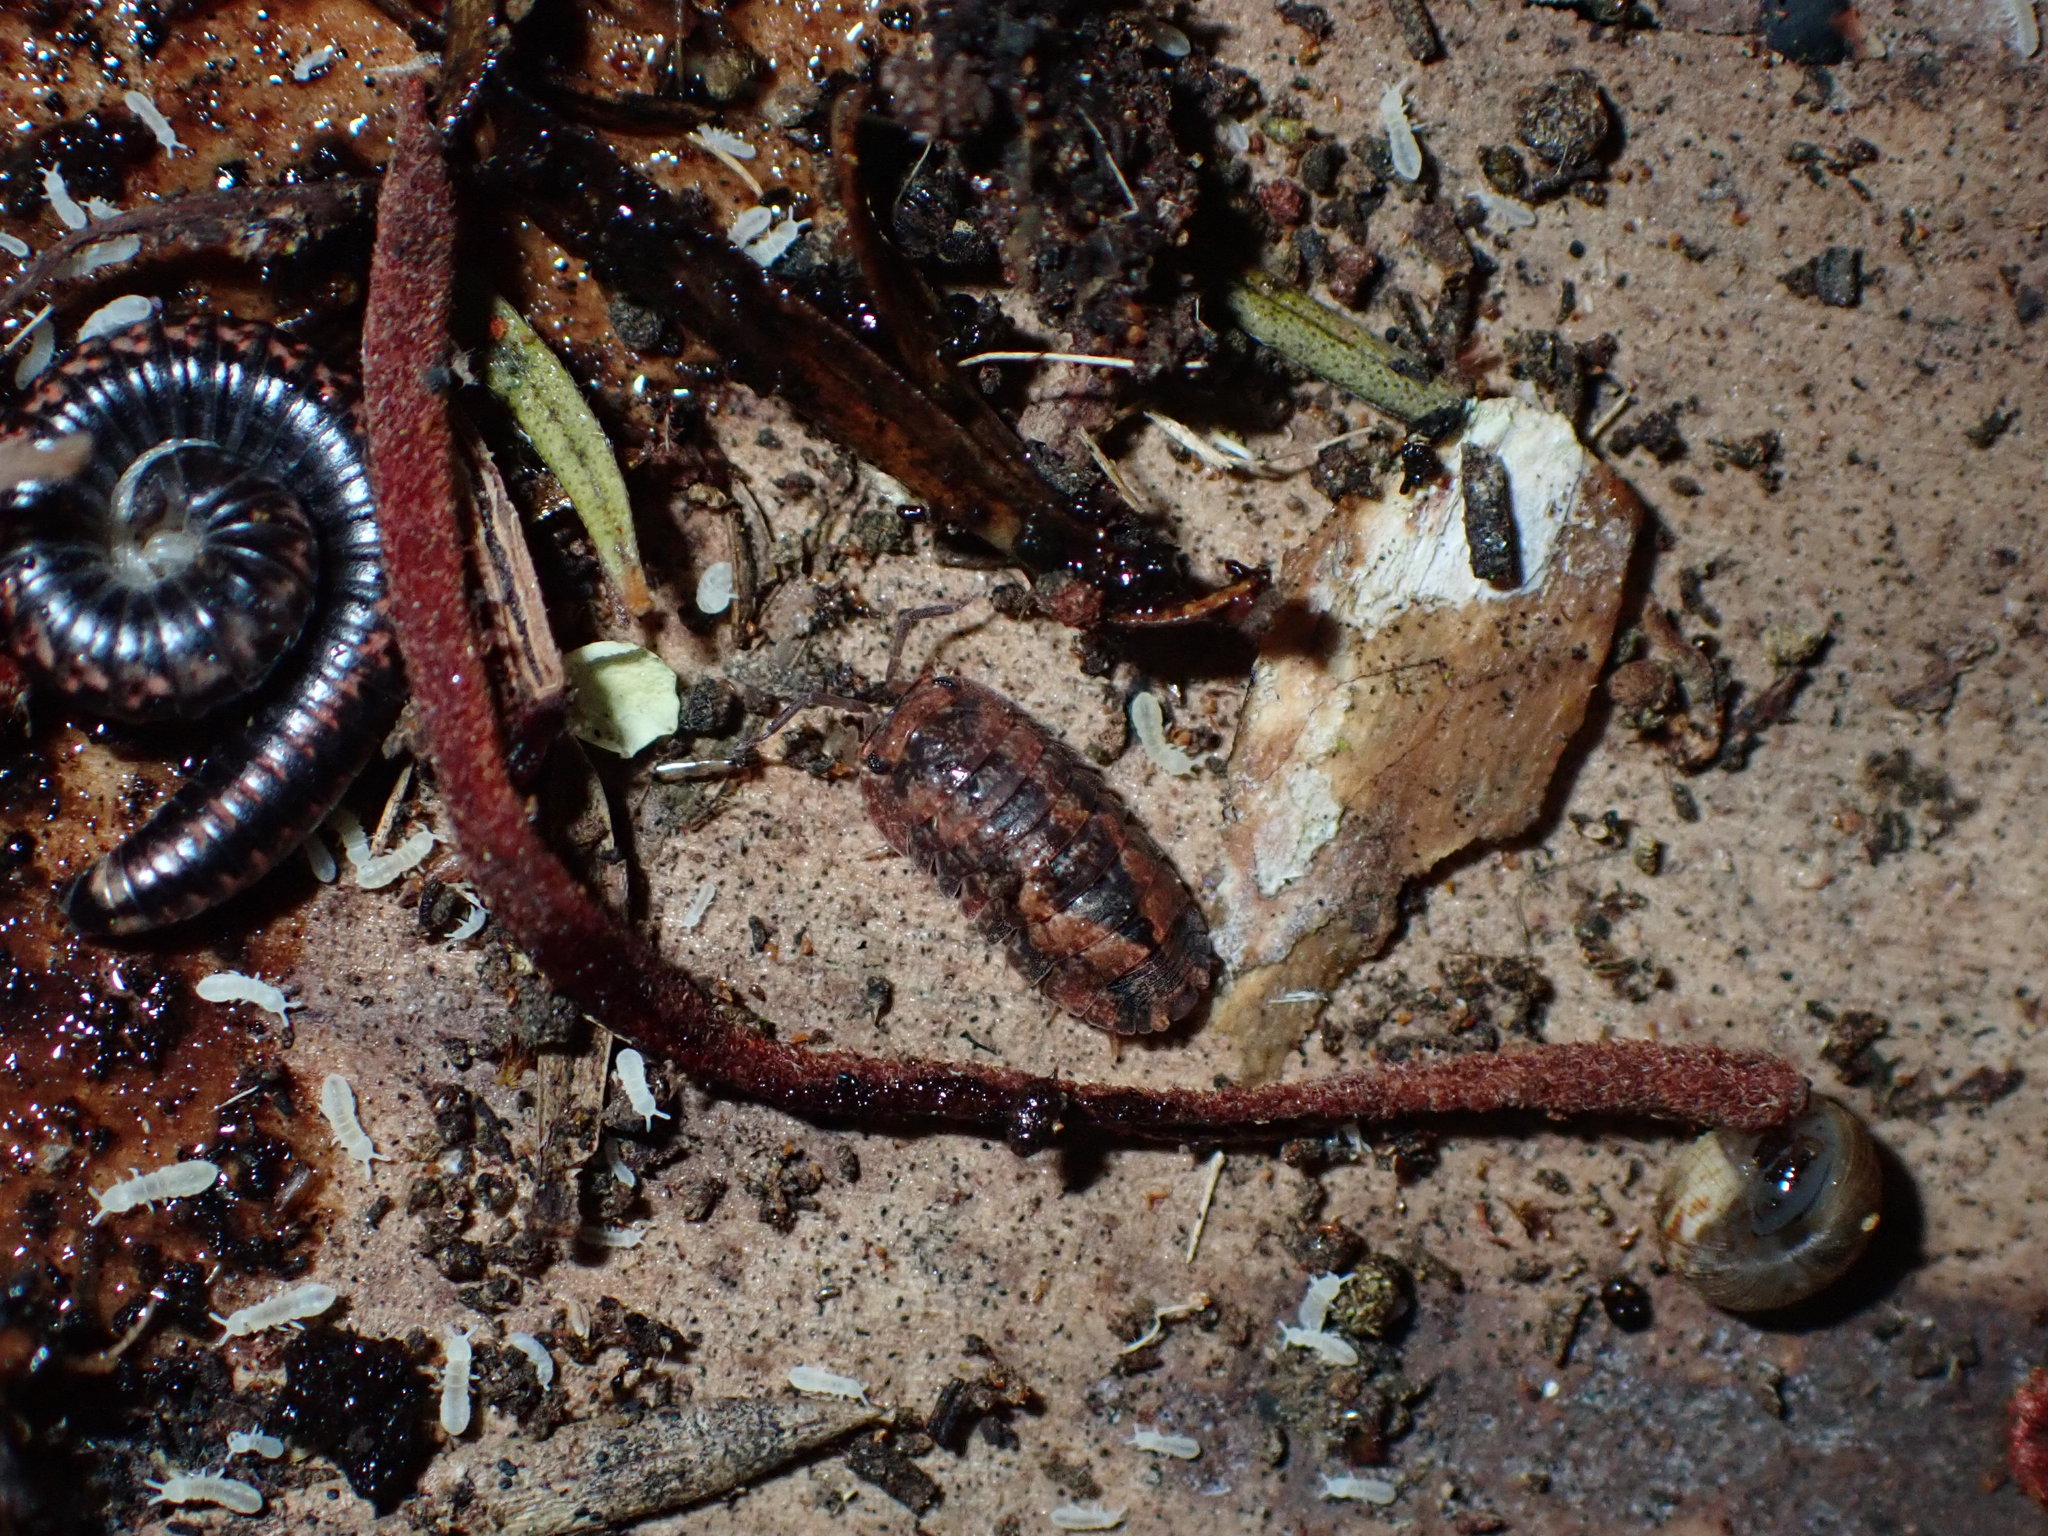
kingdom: Animalia
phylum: Arthropoda
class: Malacostraca
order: Isopoda
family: Armadillidae
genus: Cubaris
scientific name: Cubaris tarangensis
